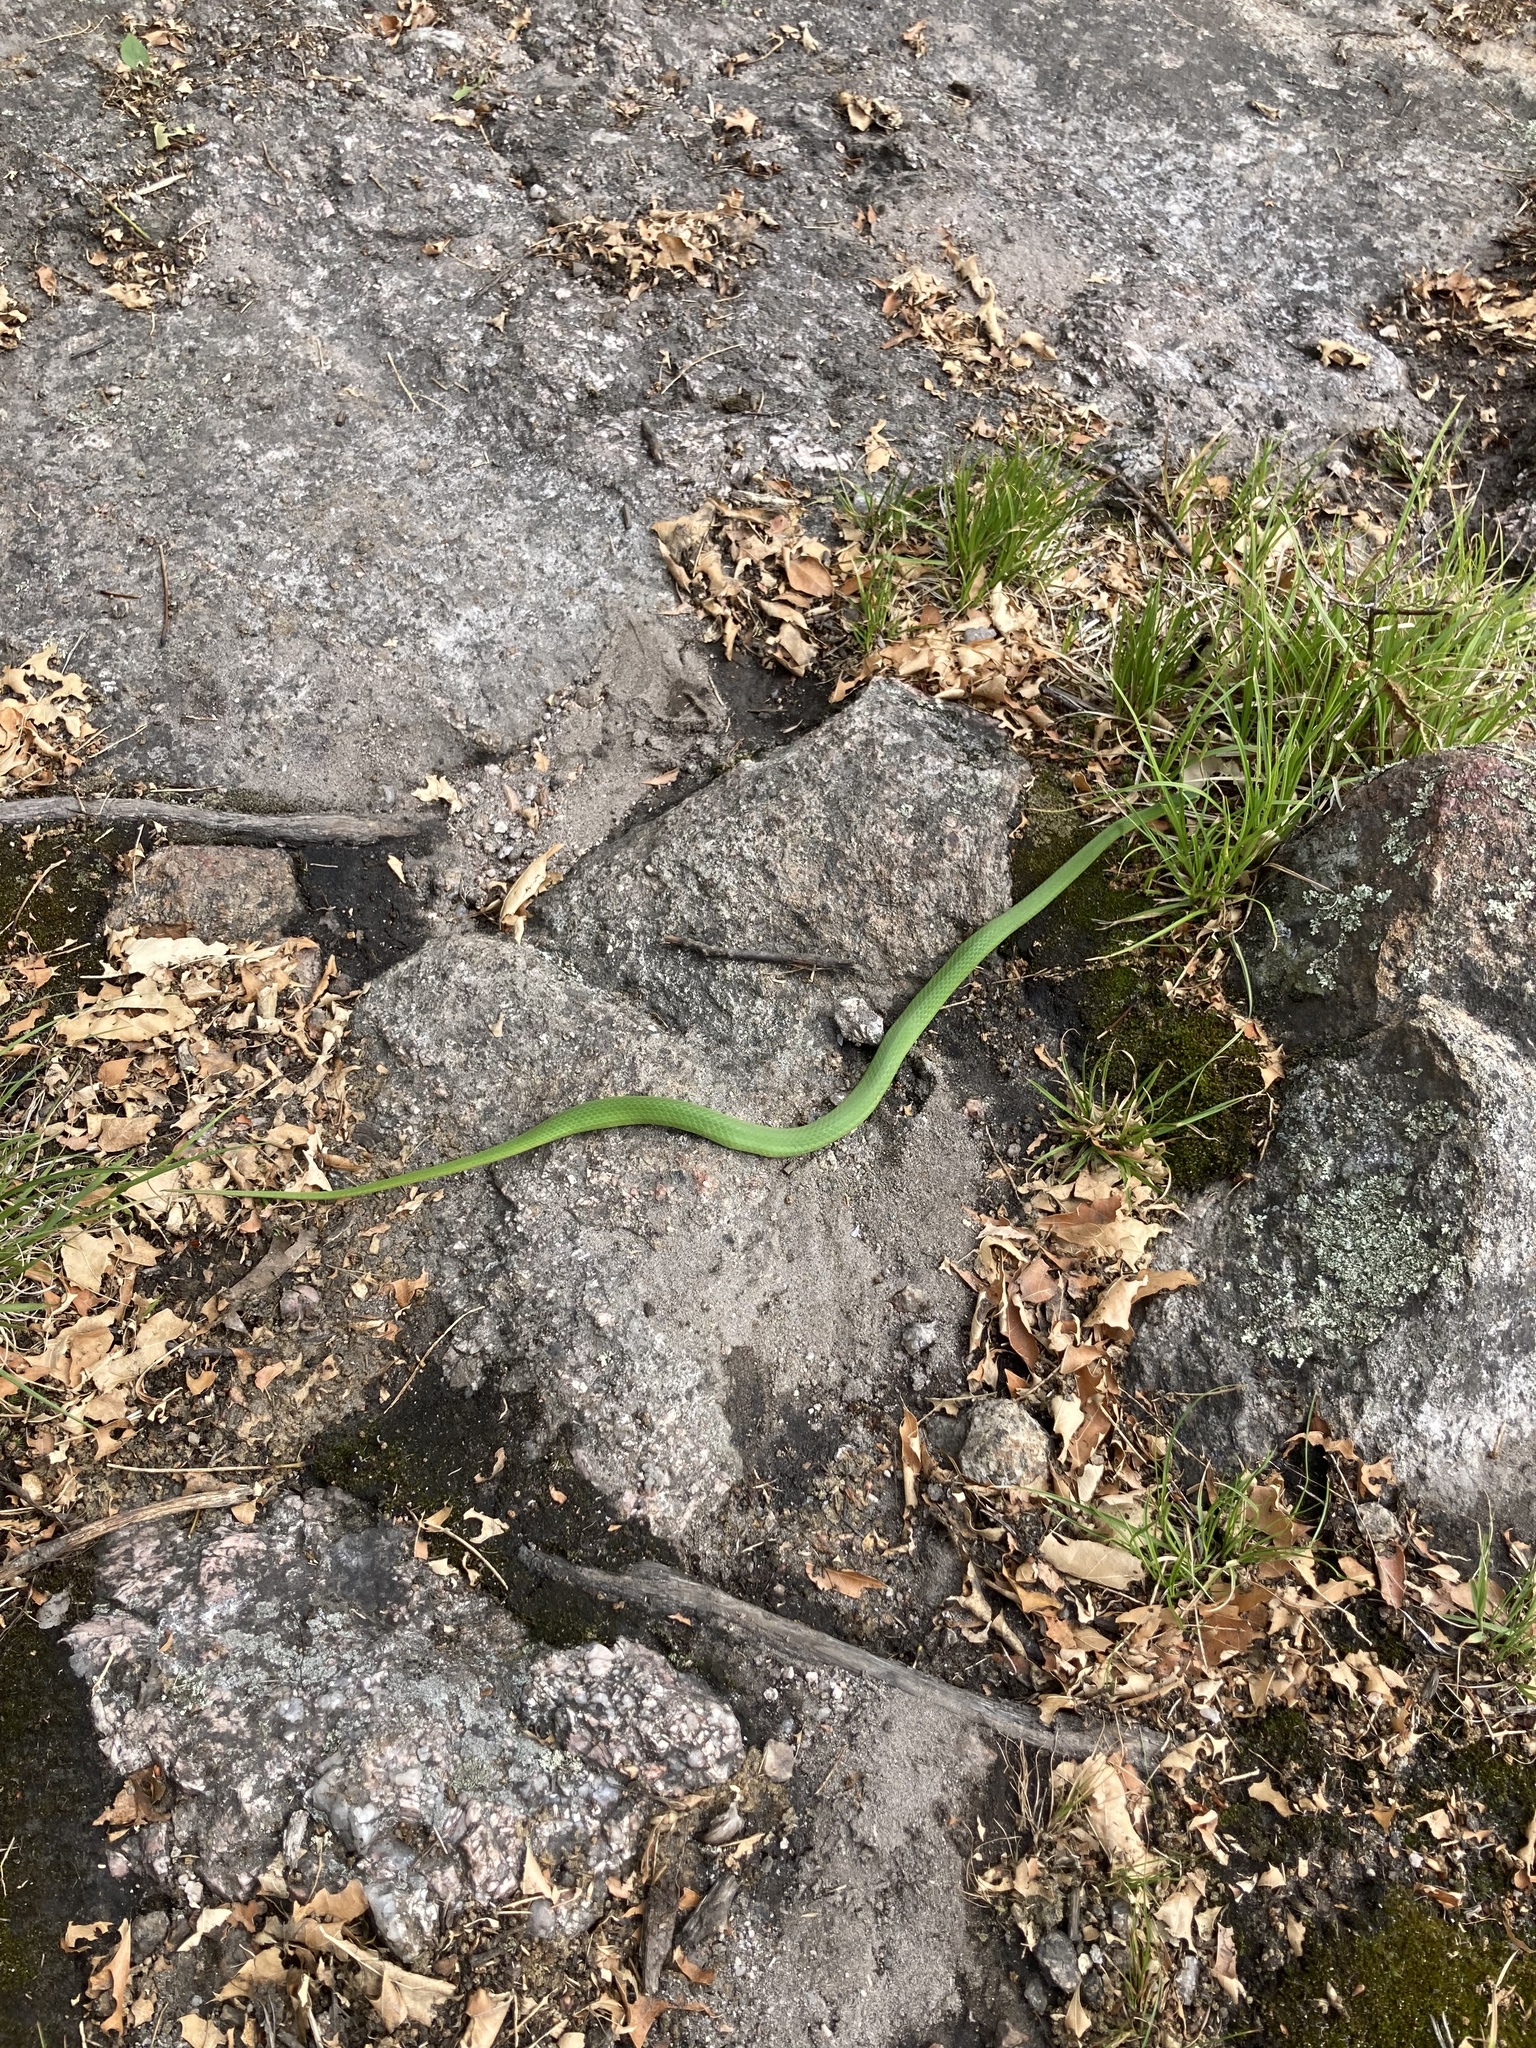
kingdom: Animalia
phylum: Chordata
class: Squamata
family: Colubridae
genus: Opheodrys
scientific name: Opheodrys vernalis
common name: Smooth green snake
